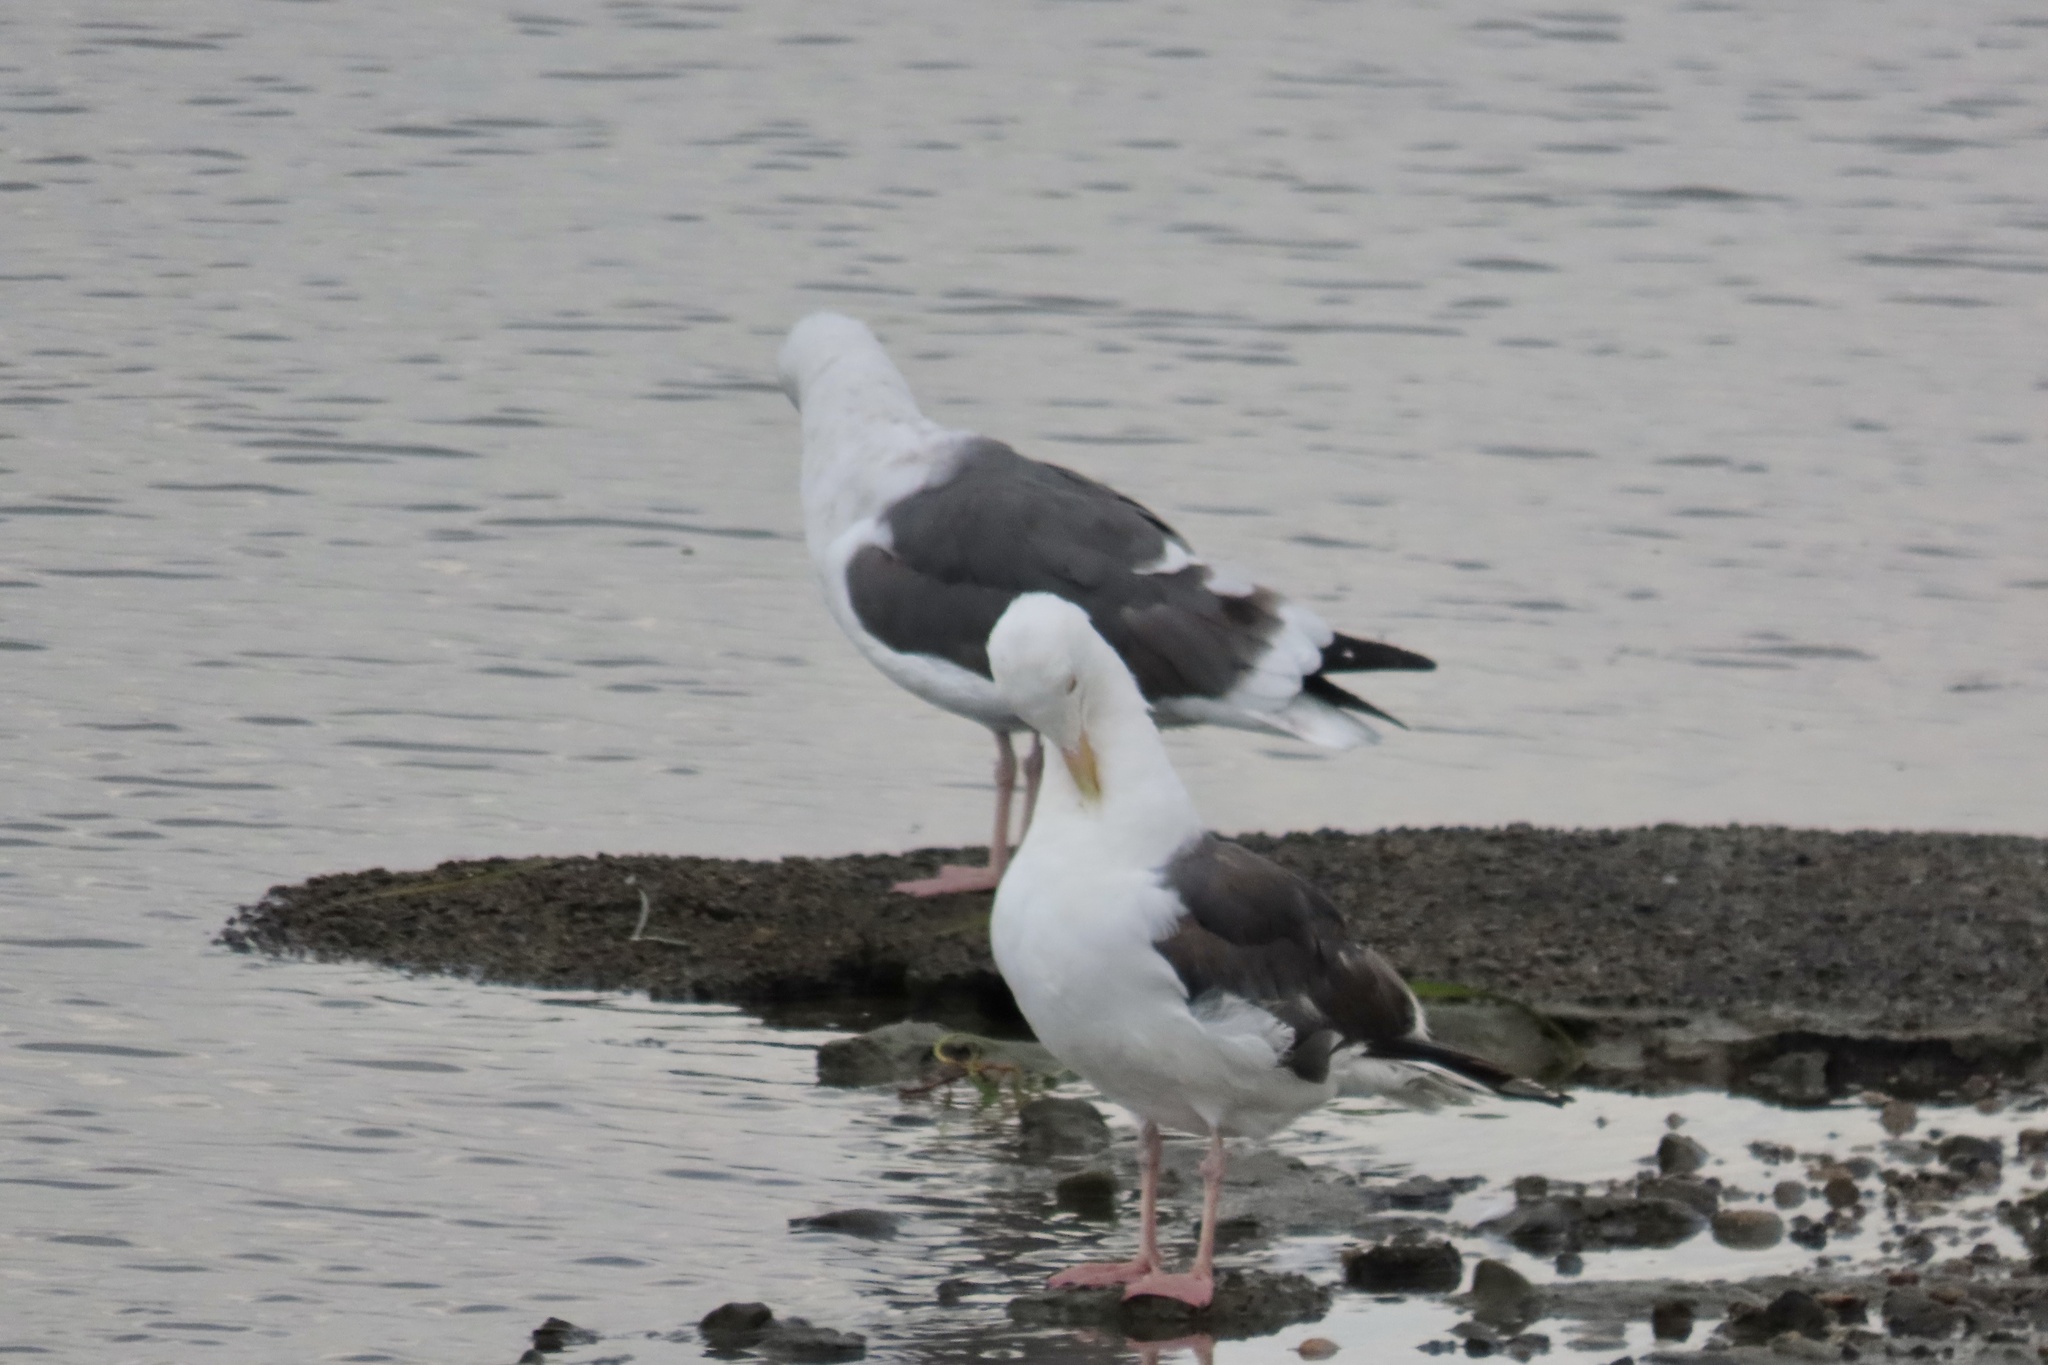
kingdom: Animalia
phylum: Chordata
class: Aves
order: Charadriiformes
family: Laridae
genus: Larus
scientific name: Larus occidentalis
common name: Western gull
